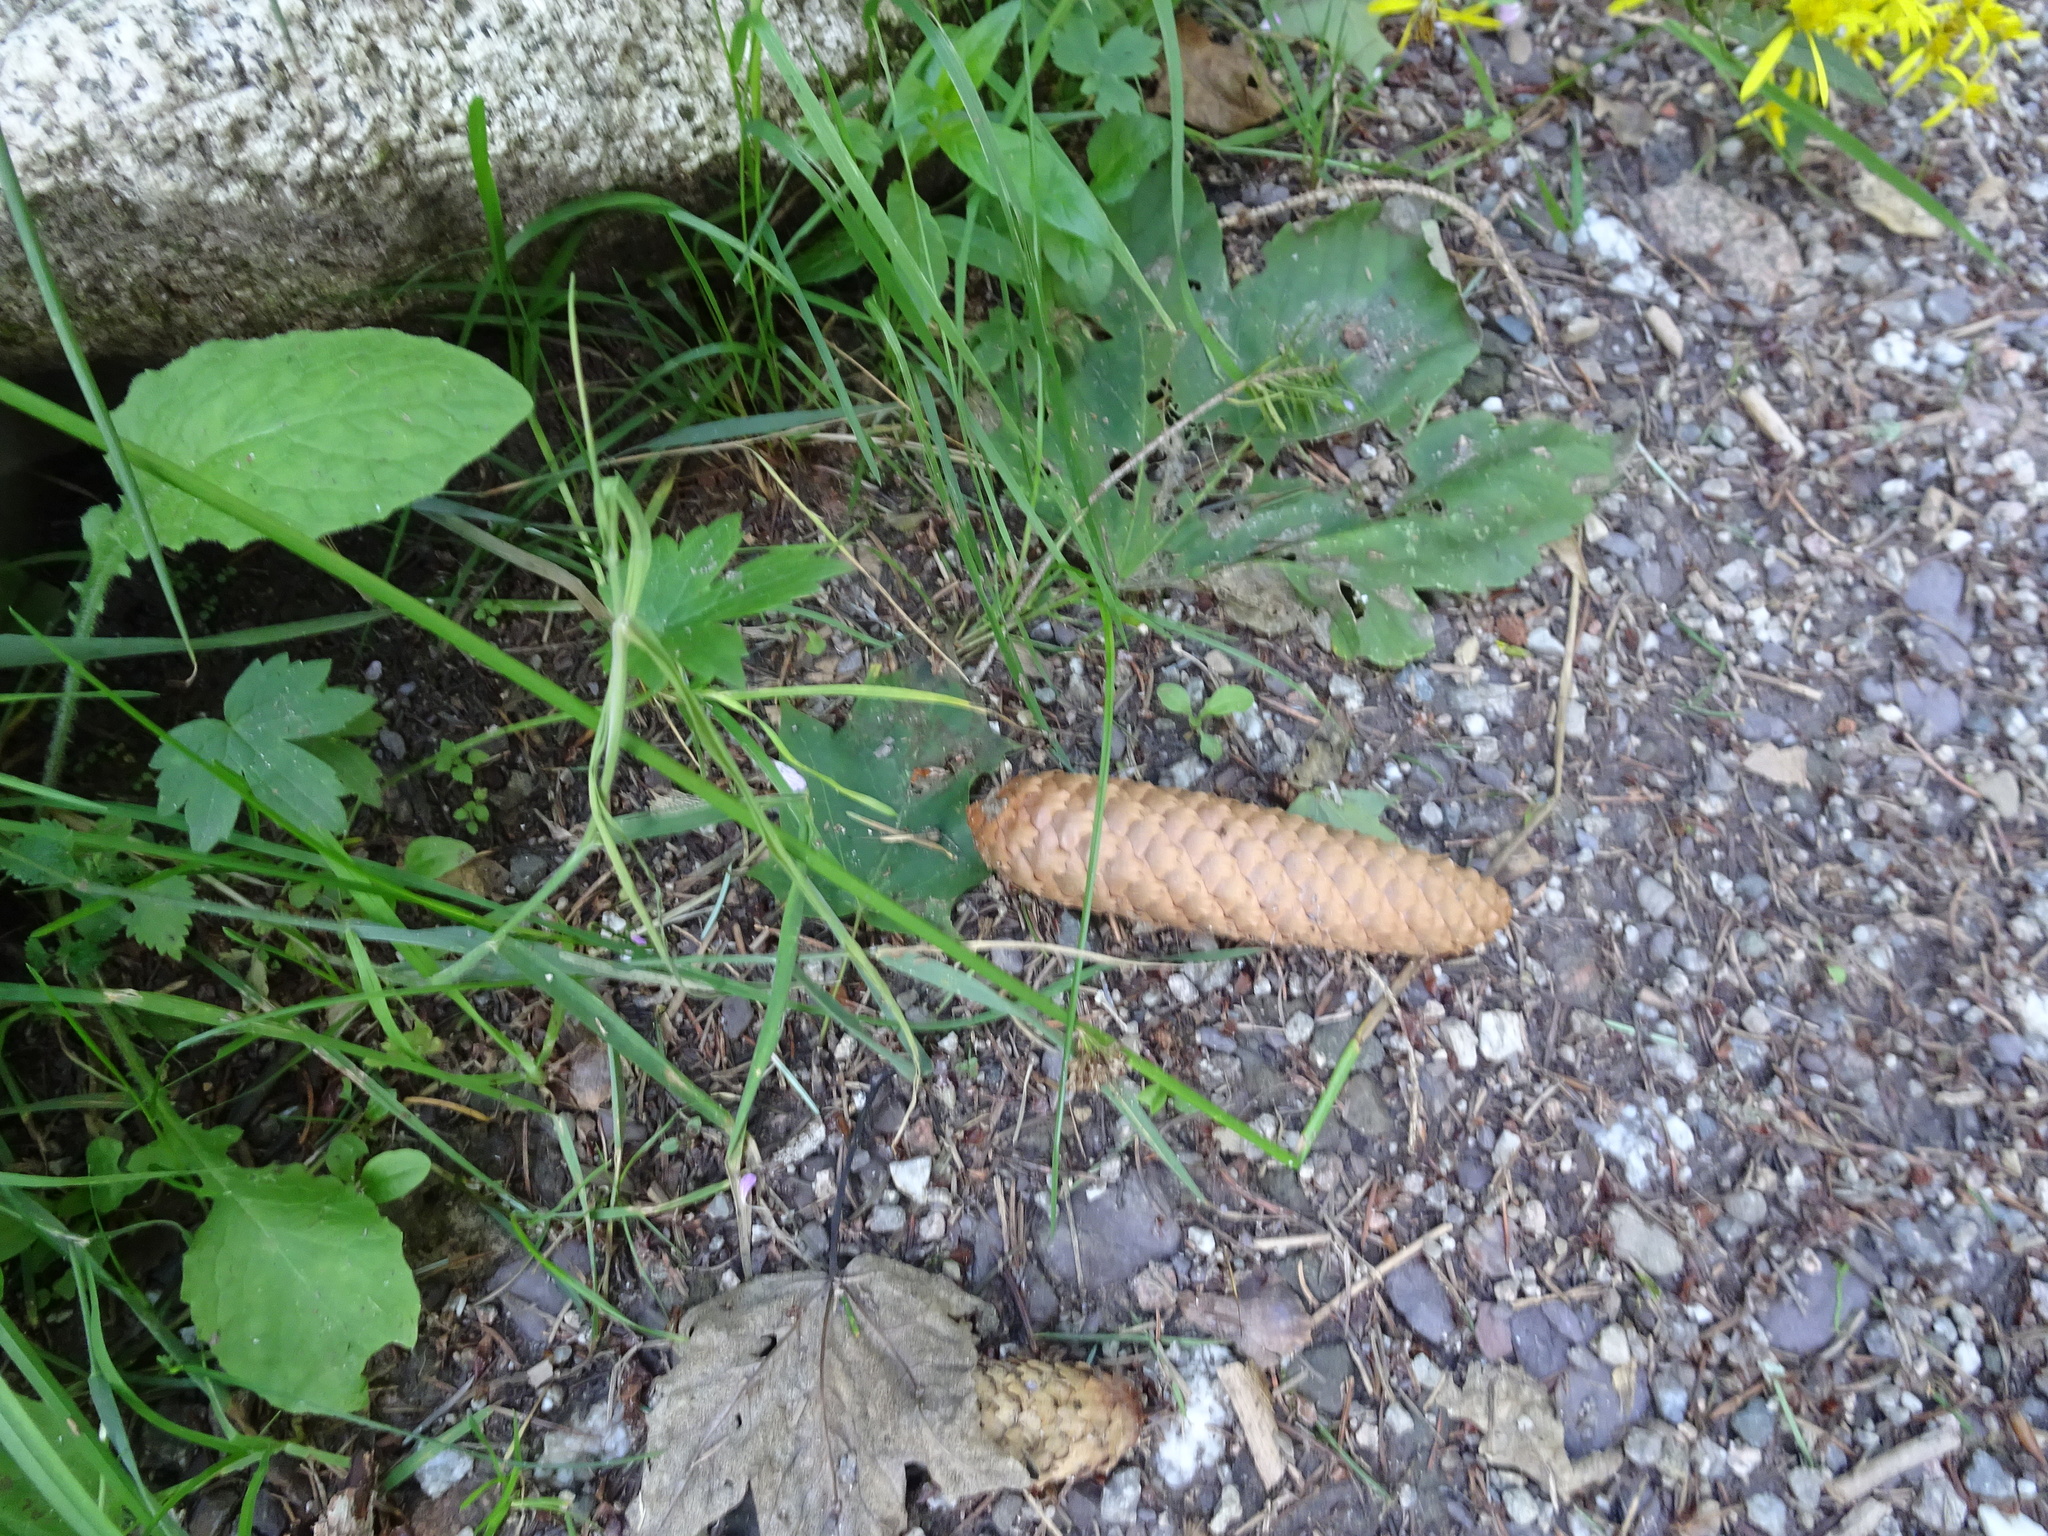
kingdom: Plantae
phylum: Tracheophyta
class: Pinopsida
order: Pinales
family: Pinaceae
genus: Picea
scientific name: Picea abies
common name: Norway spruce
